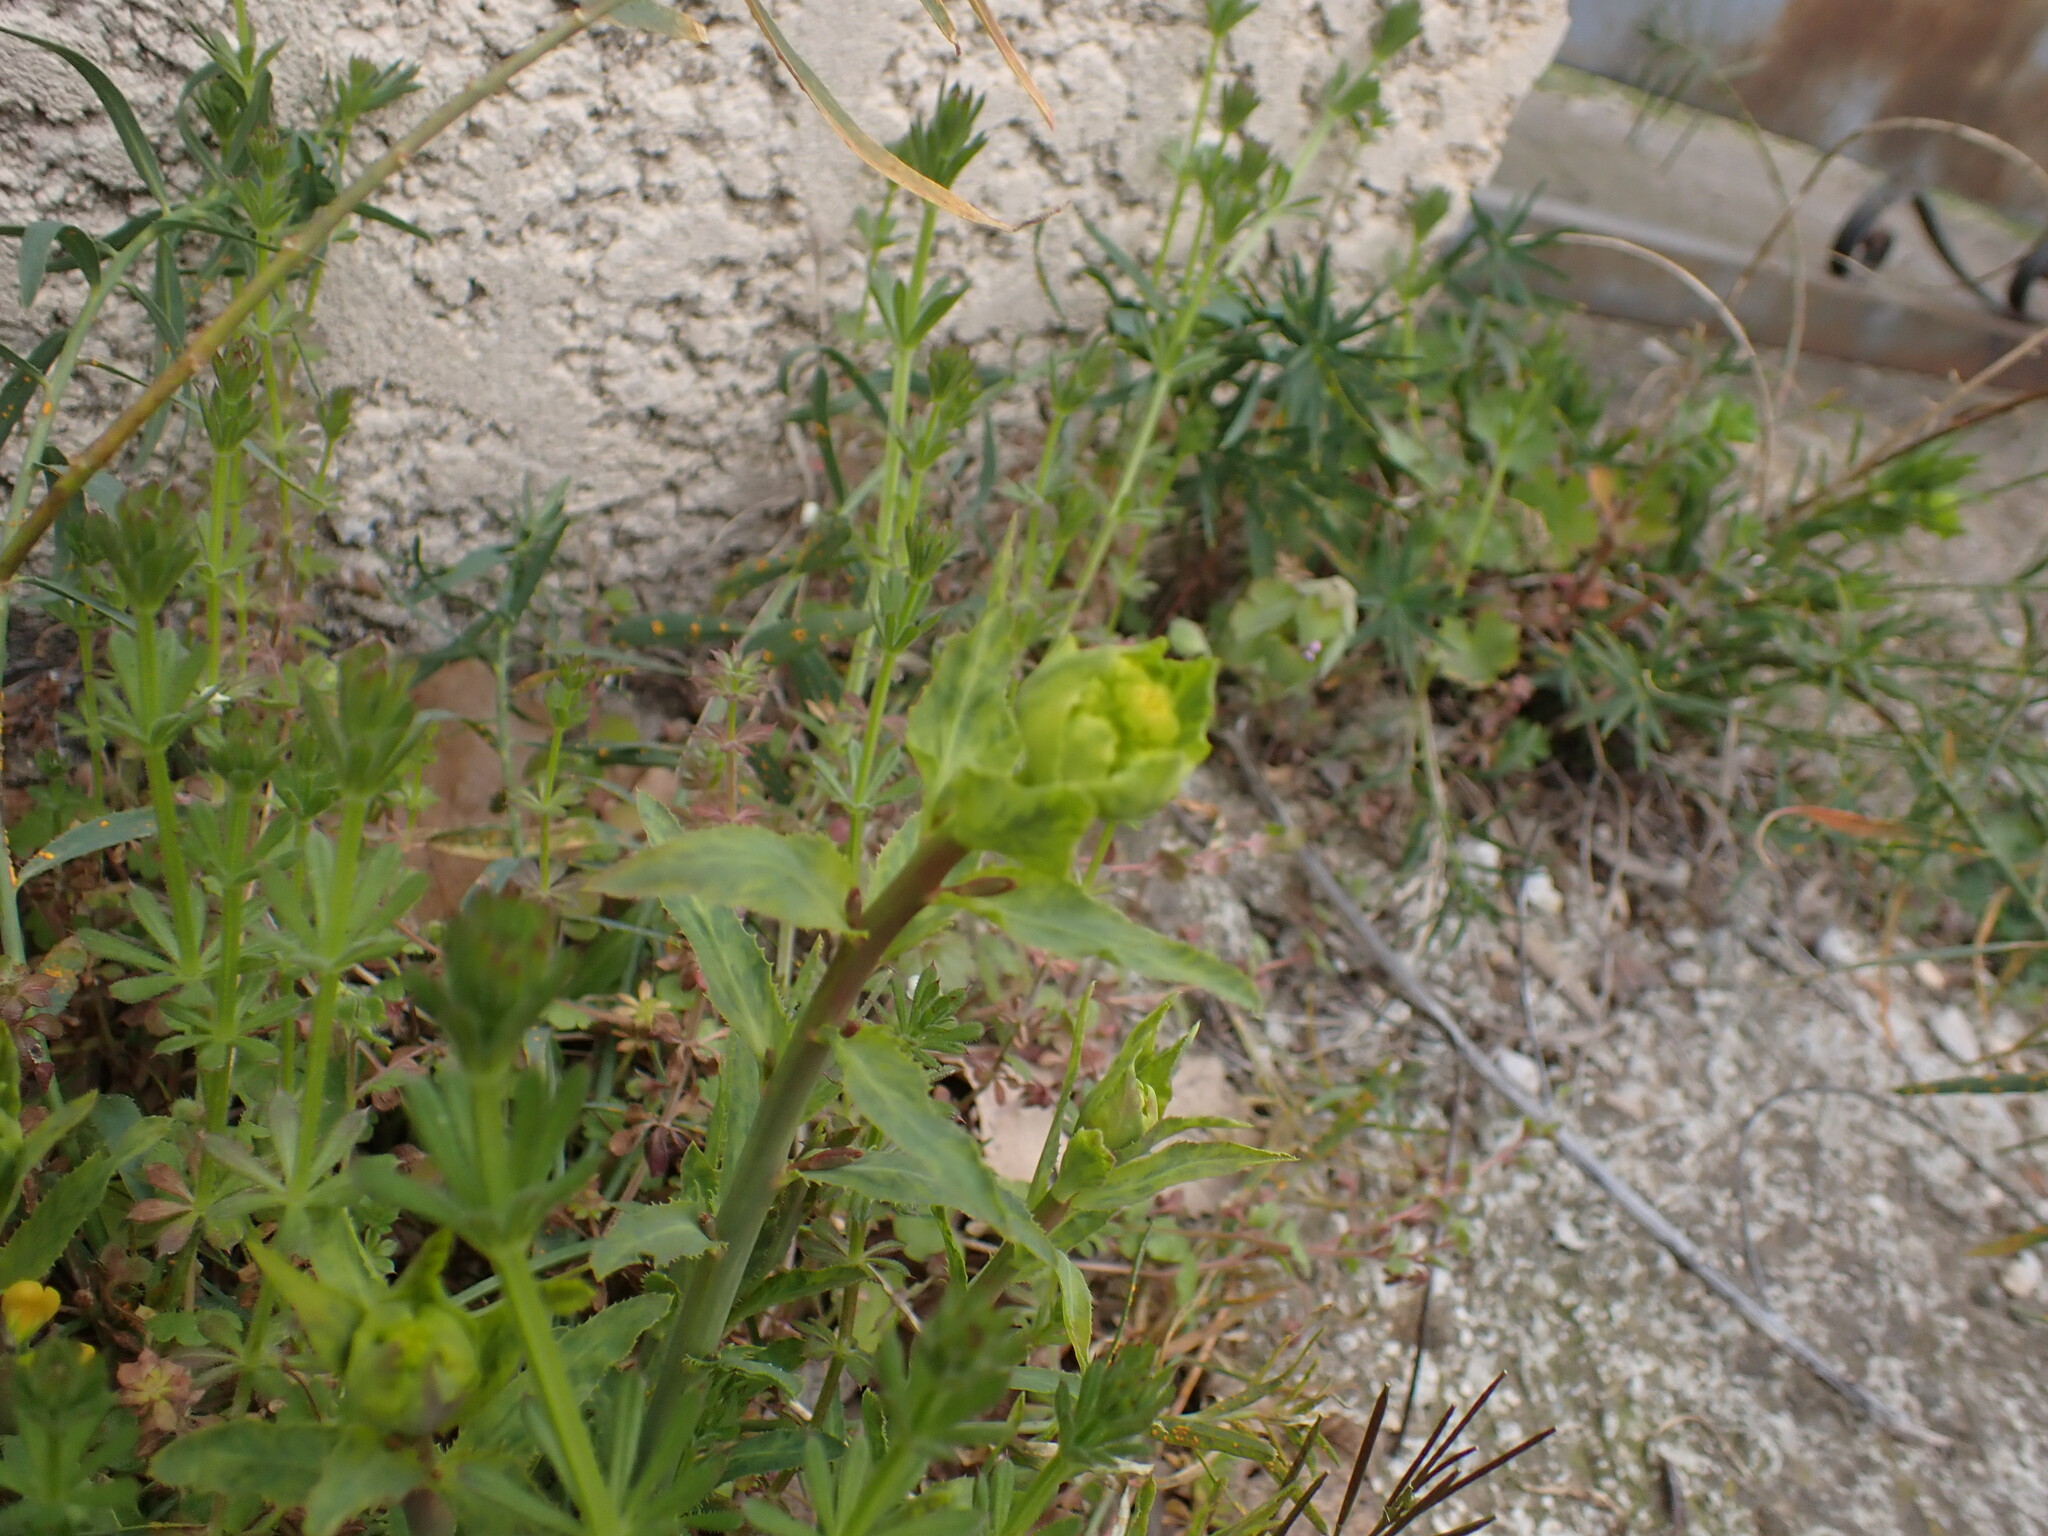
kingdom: Plantae
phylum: Tracheophyta
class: Magnoliopsida
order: Malpighiales
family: Euphorbiaceae
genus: Euphorbia
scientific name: Euphorbia serrata
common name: Serrate spurge
